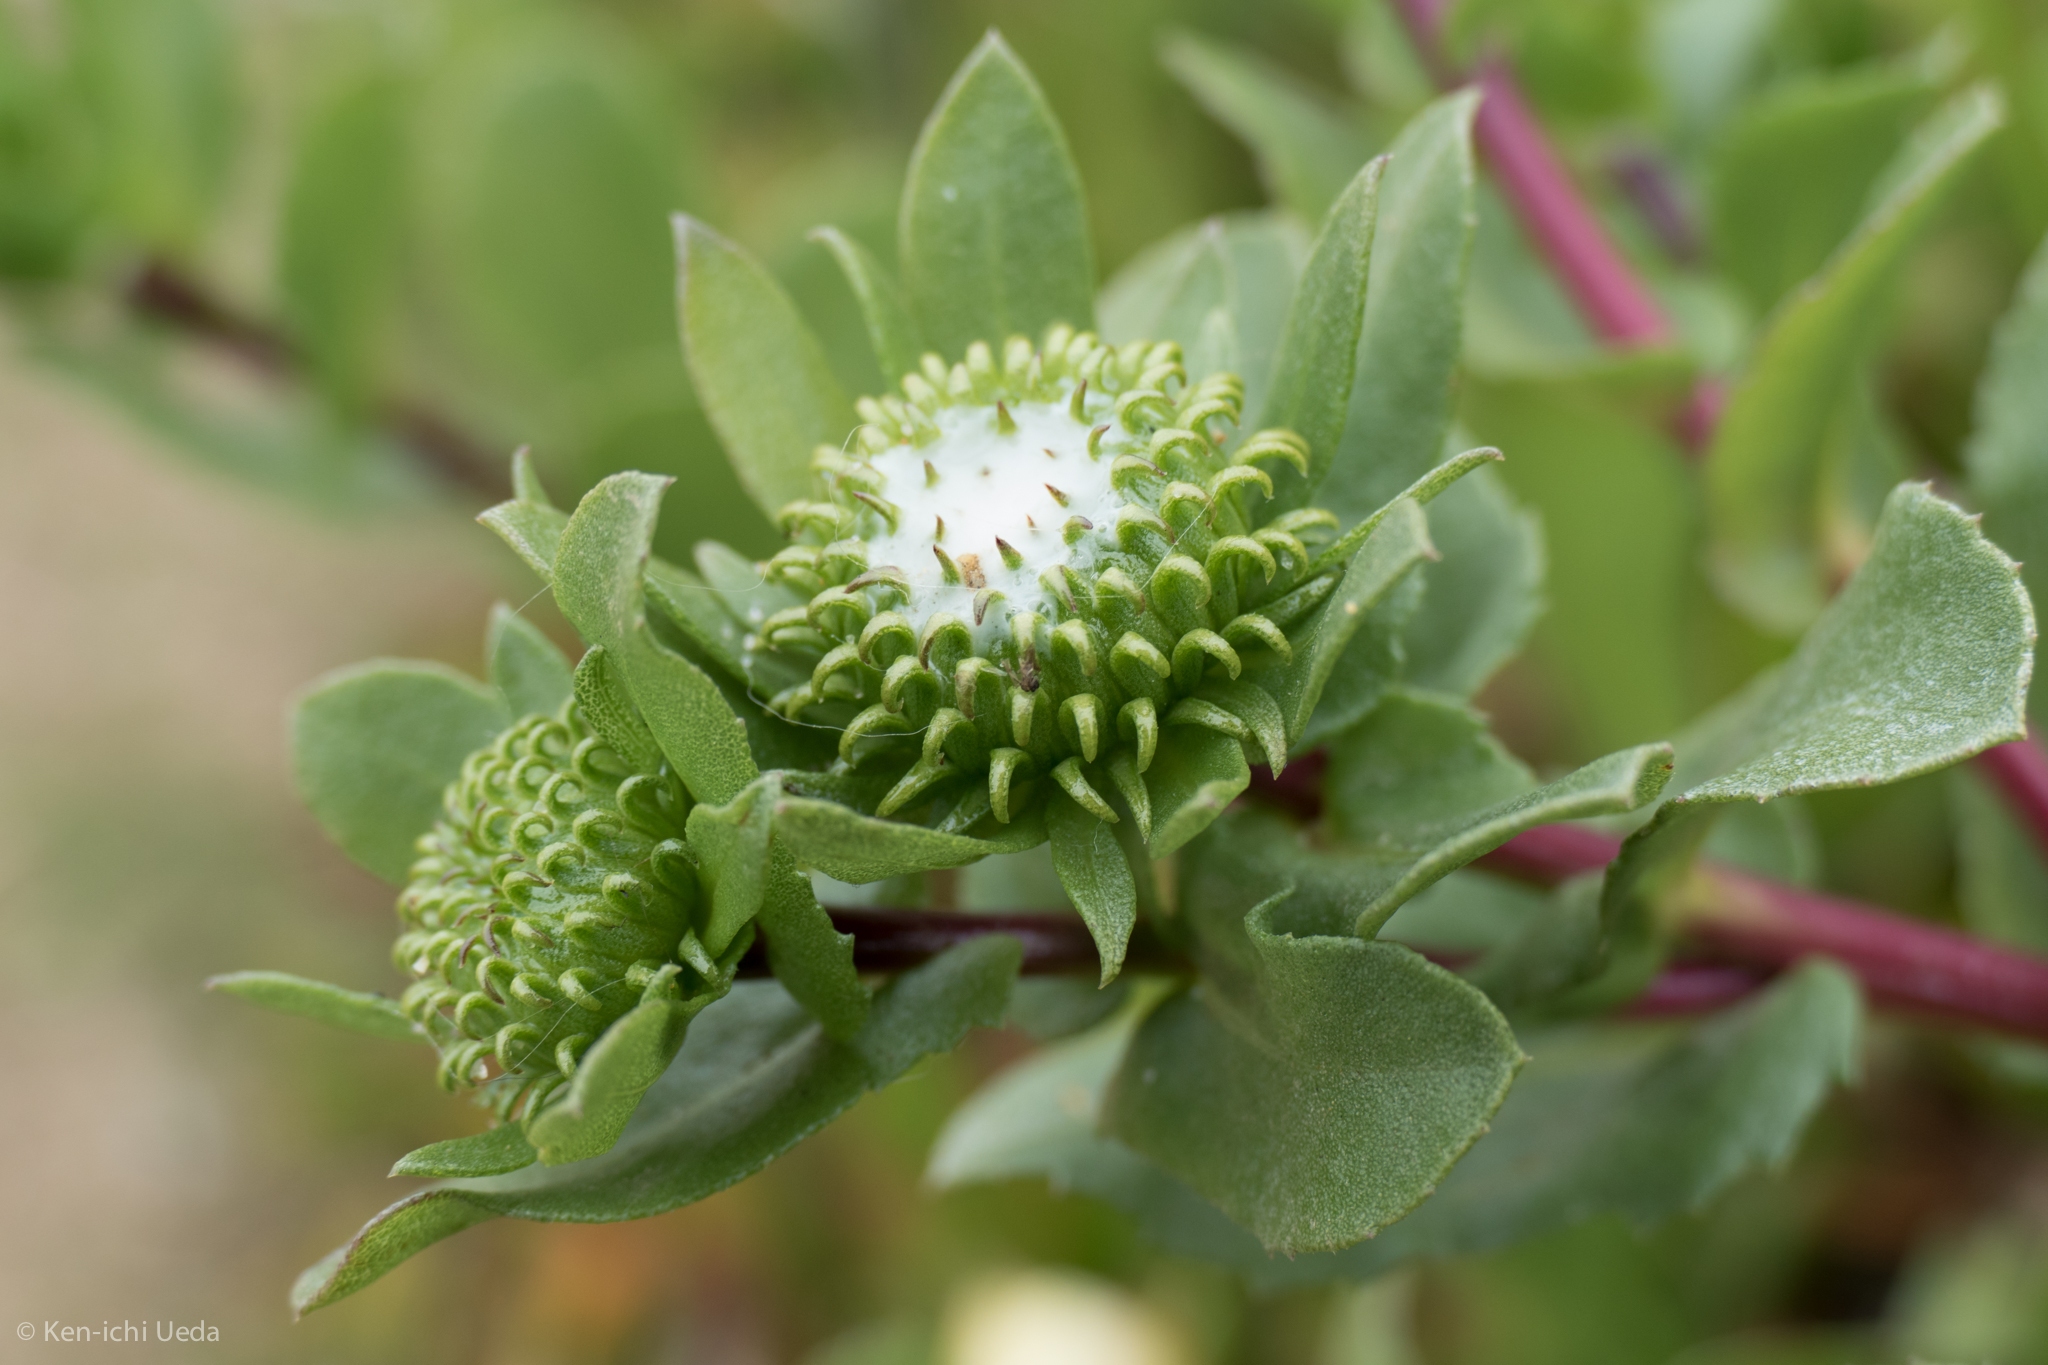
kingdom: Plantae
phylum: Tracheophyta
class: Magnoliopsida
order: Asterales
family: Asteraceae
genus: Grindelia
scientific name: Grindelia hirsutula
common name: Hairy gumweed
